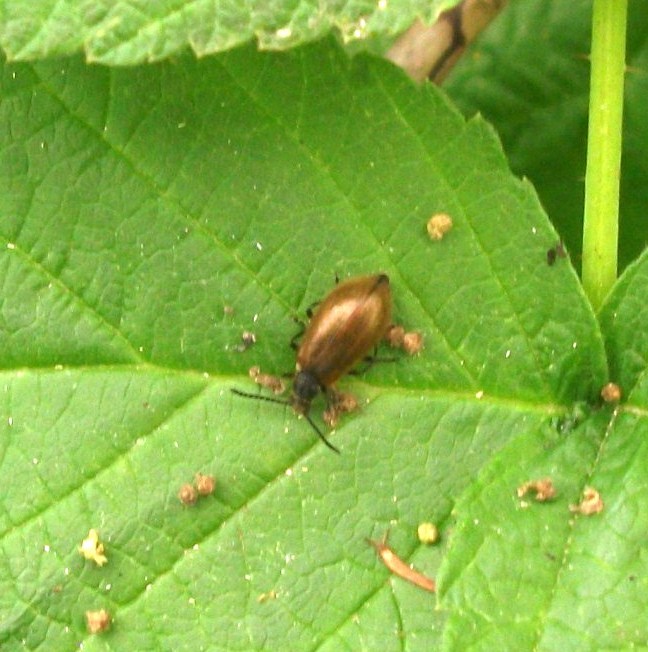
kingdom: Animalia
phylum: Arthropoda
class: Insecta
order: Coleoptera
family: Tenebrionidae
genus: Lagria
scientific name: Lagria hirta
